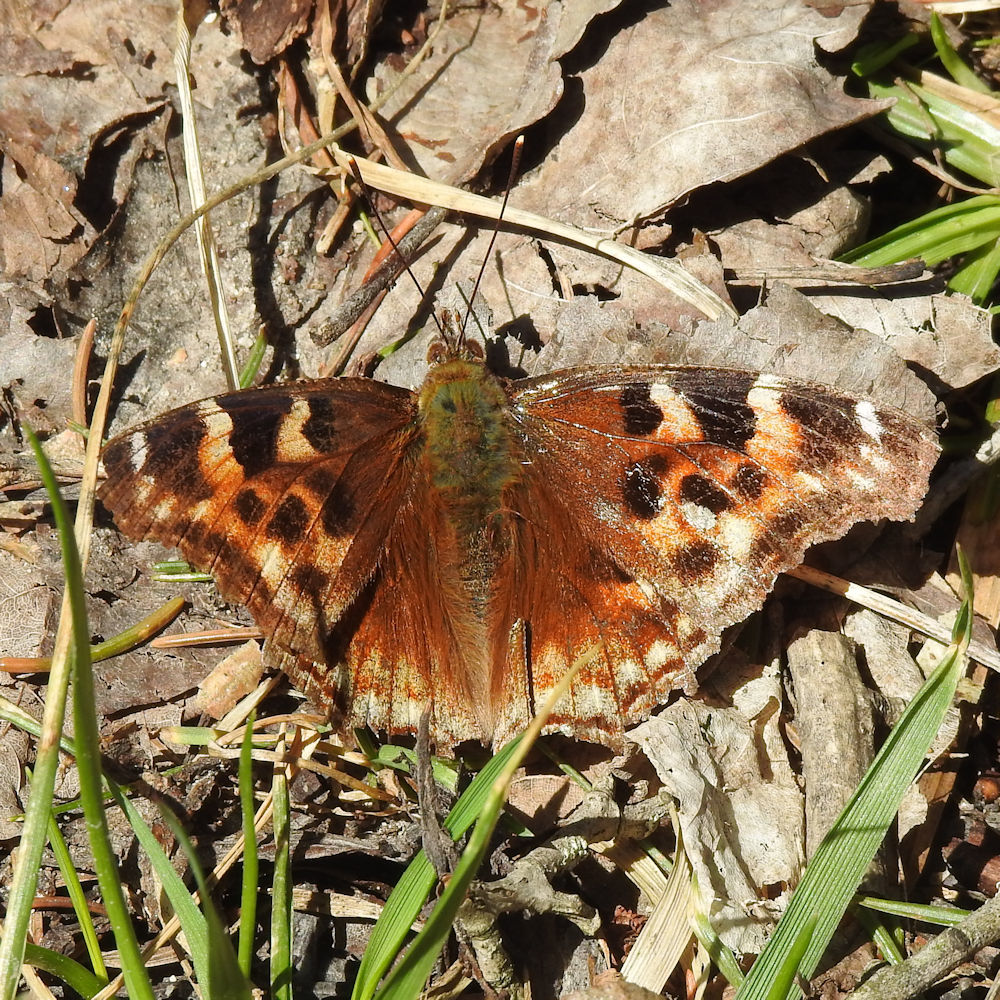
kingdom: Animalia
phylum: Arthropoda
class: Insecta
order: Lepidoptera
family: Nymphalidae
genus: Polygonia
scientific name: Polygonia vaualbum
